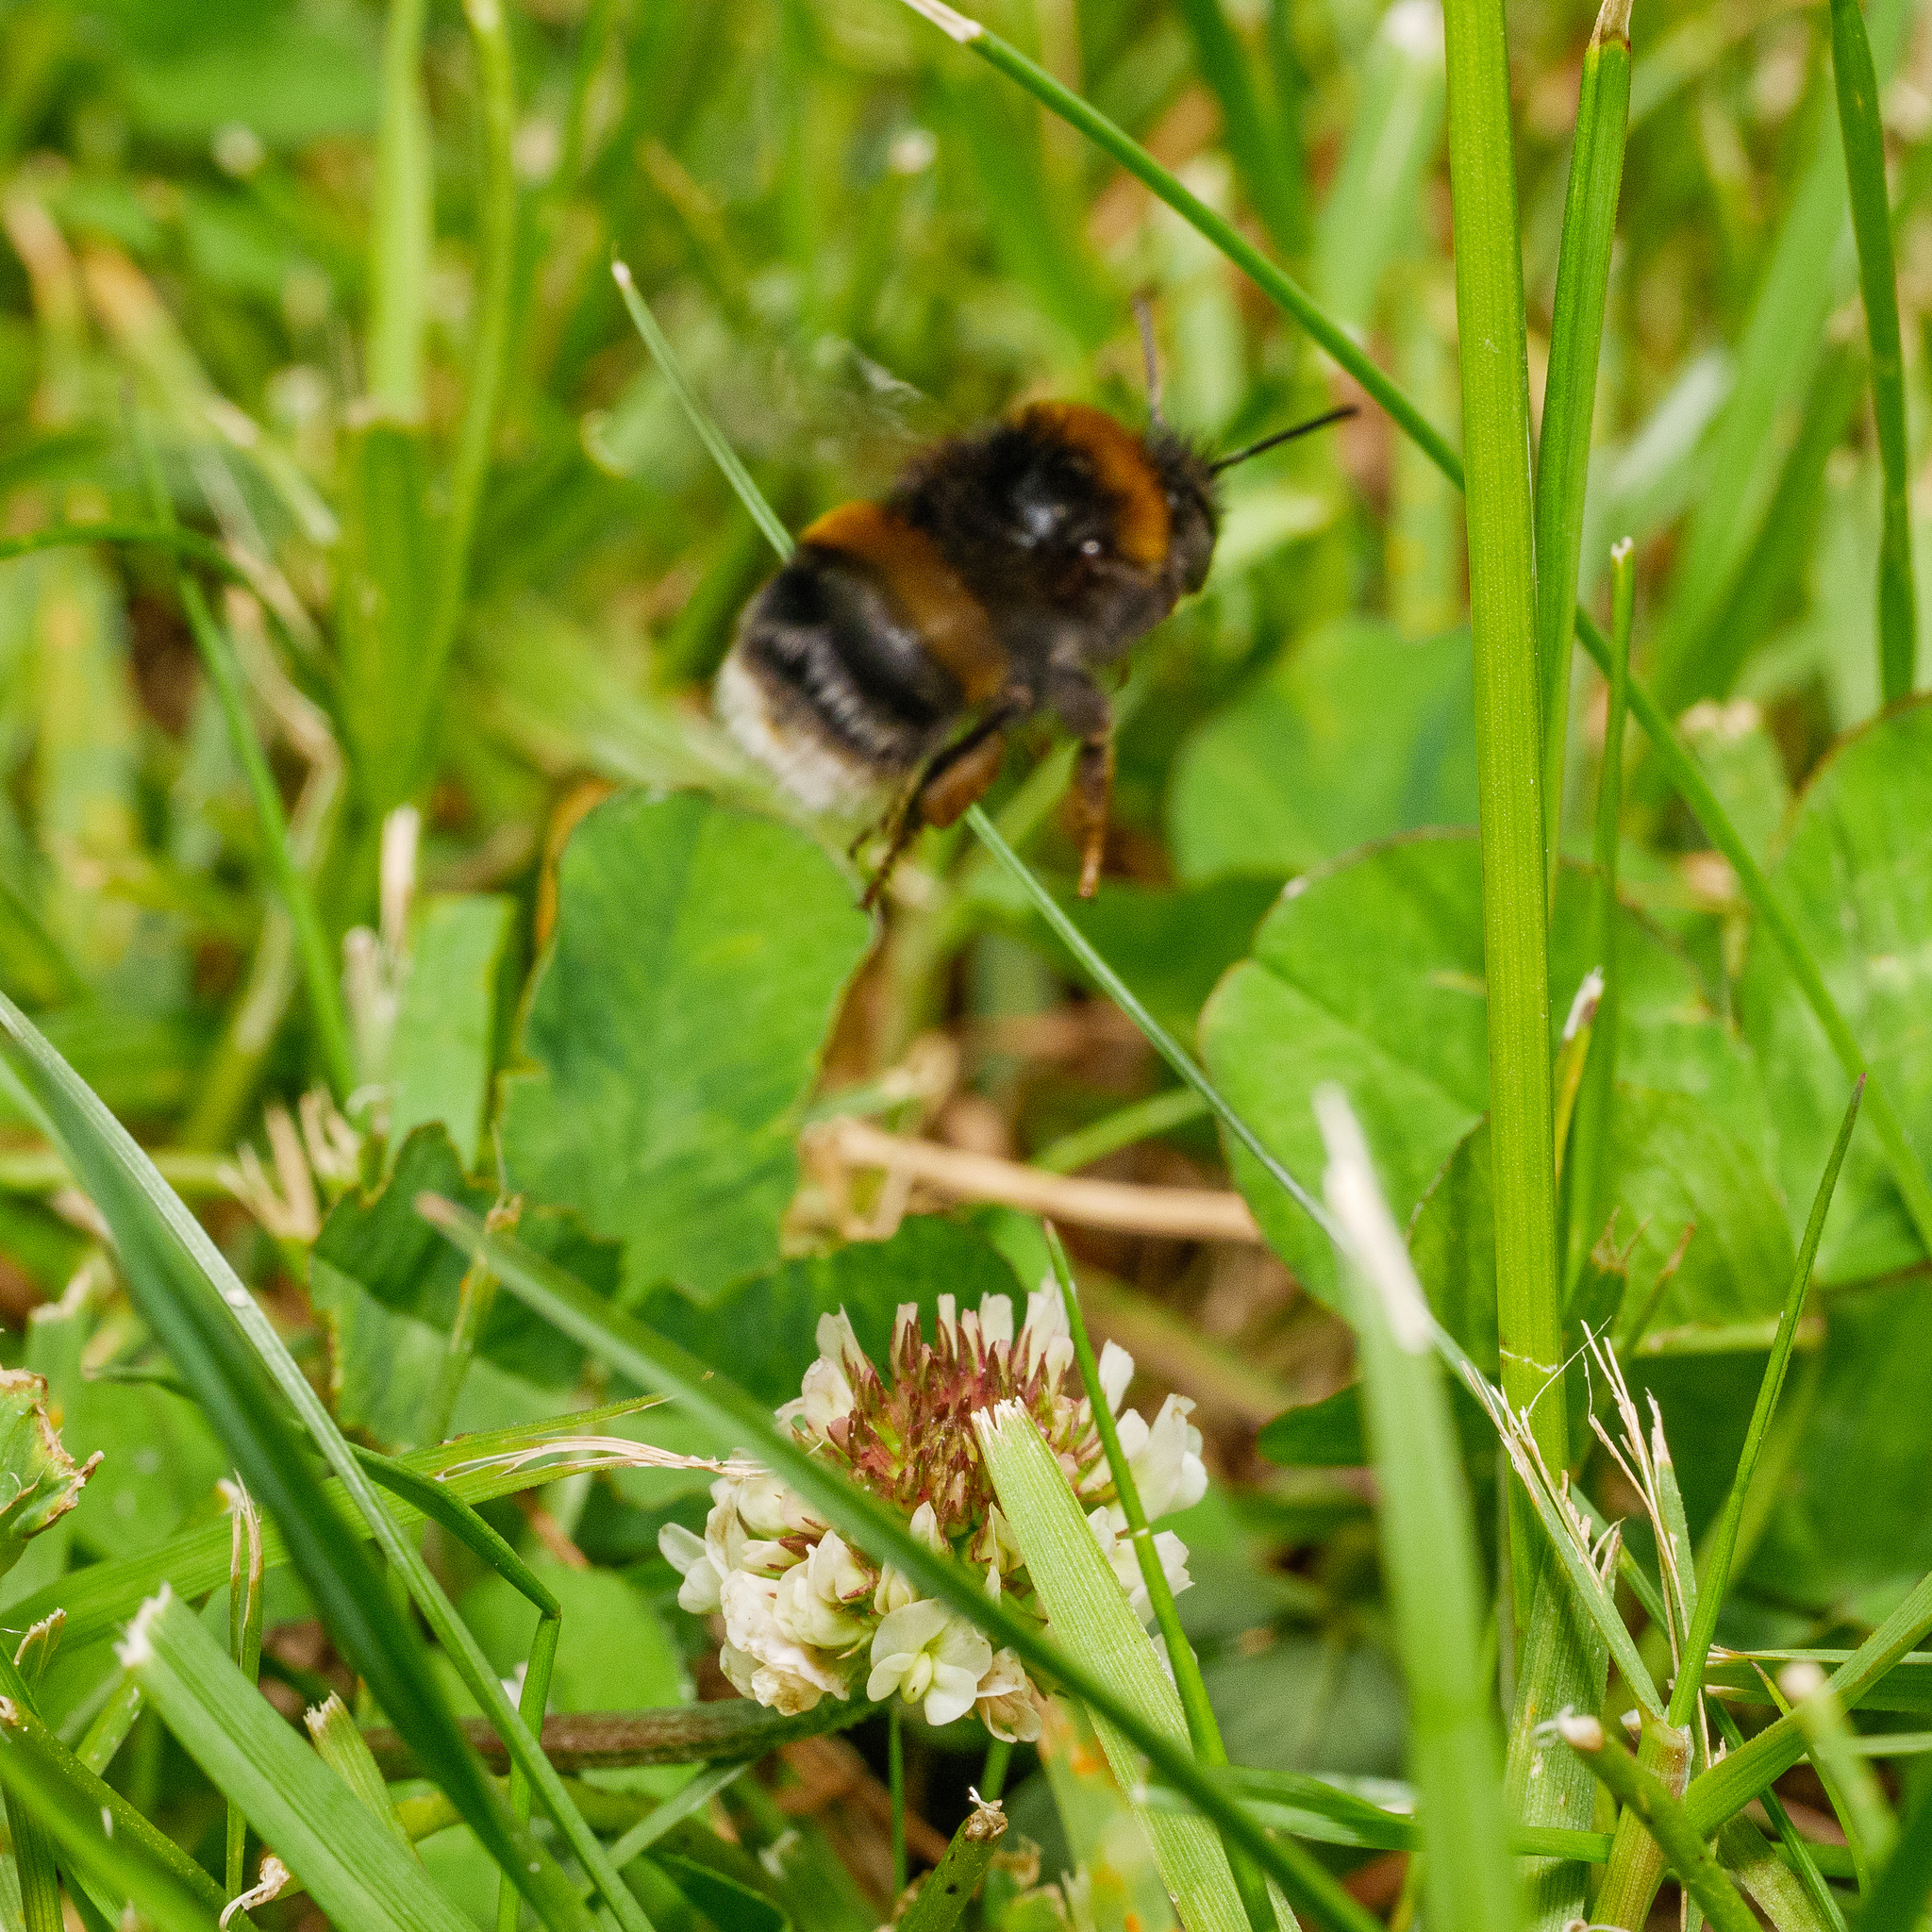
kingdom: Animalia
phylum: Arthropoda
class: Insecta
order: Hymenoptera
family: Apidae
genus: Bombus
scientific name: Bombus terrestris
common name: Buff-tailed bumblebee
